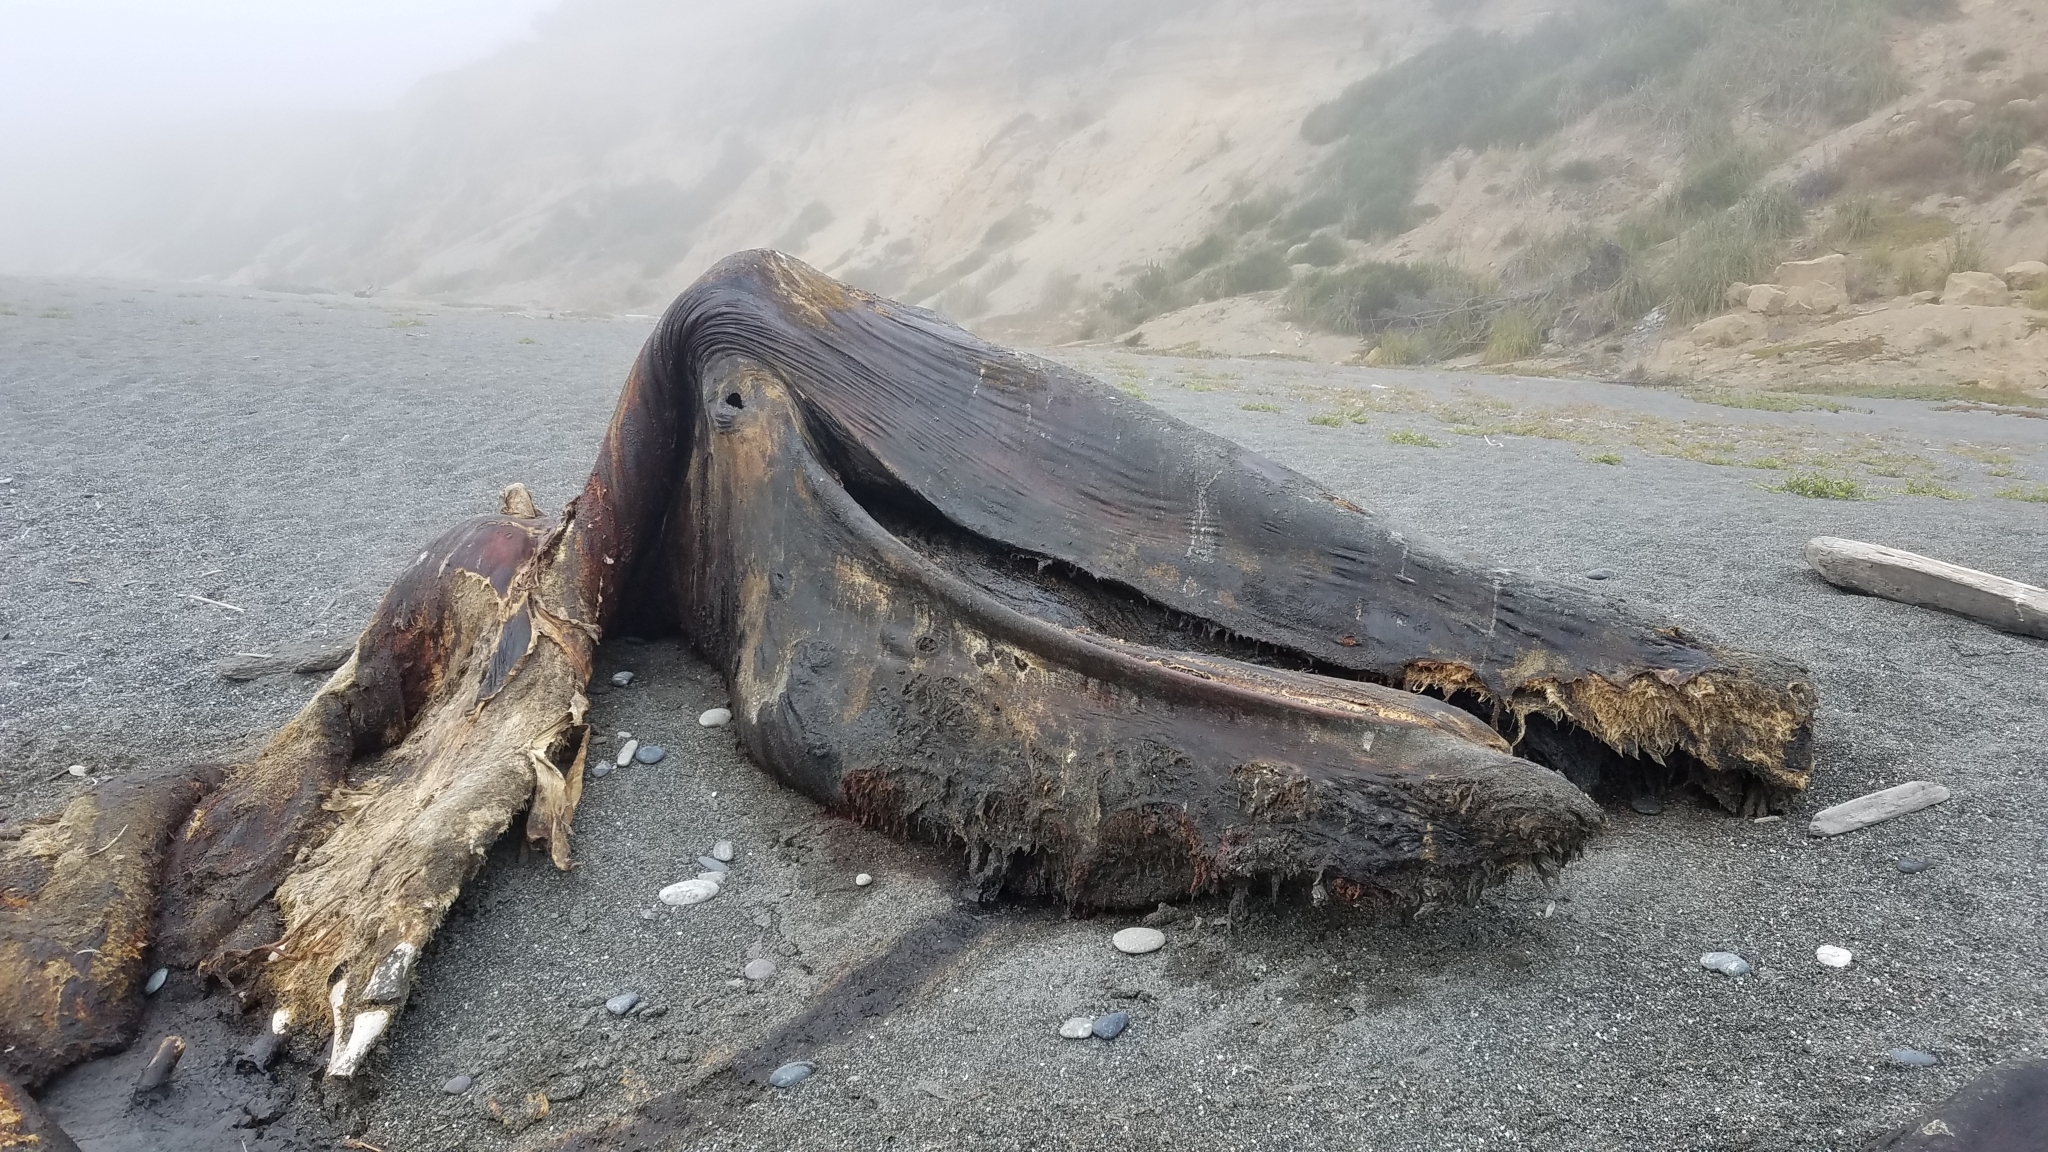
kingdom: Animalia
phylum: Chordata
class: Mammalia
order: Cetacea
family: Eschrichtiidae
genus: Eschrichtius
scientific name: Eschrichtius robustus
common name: Gray whale
